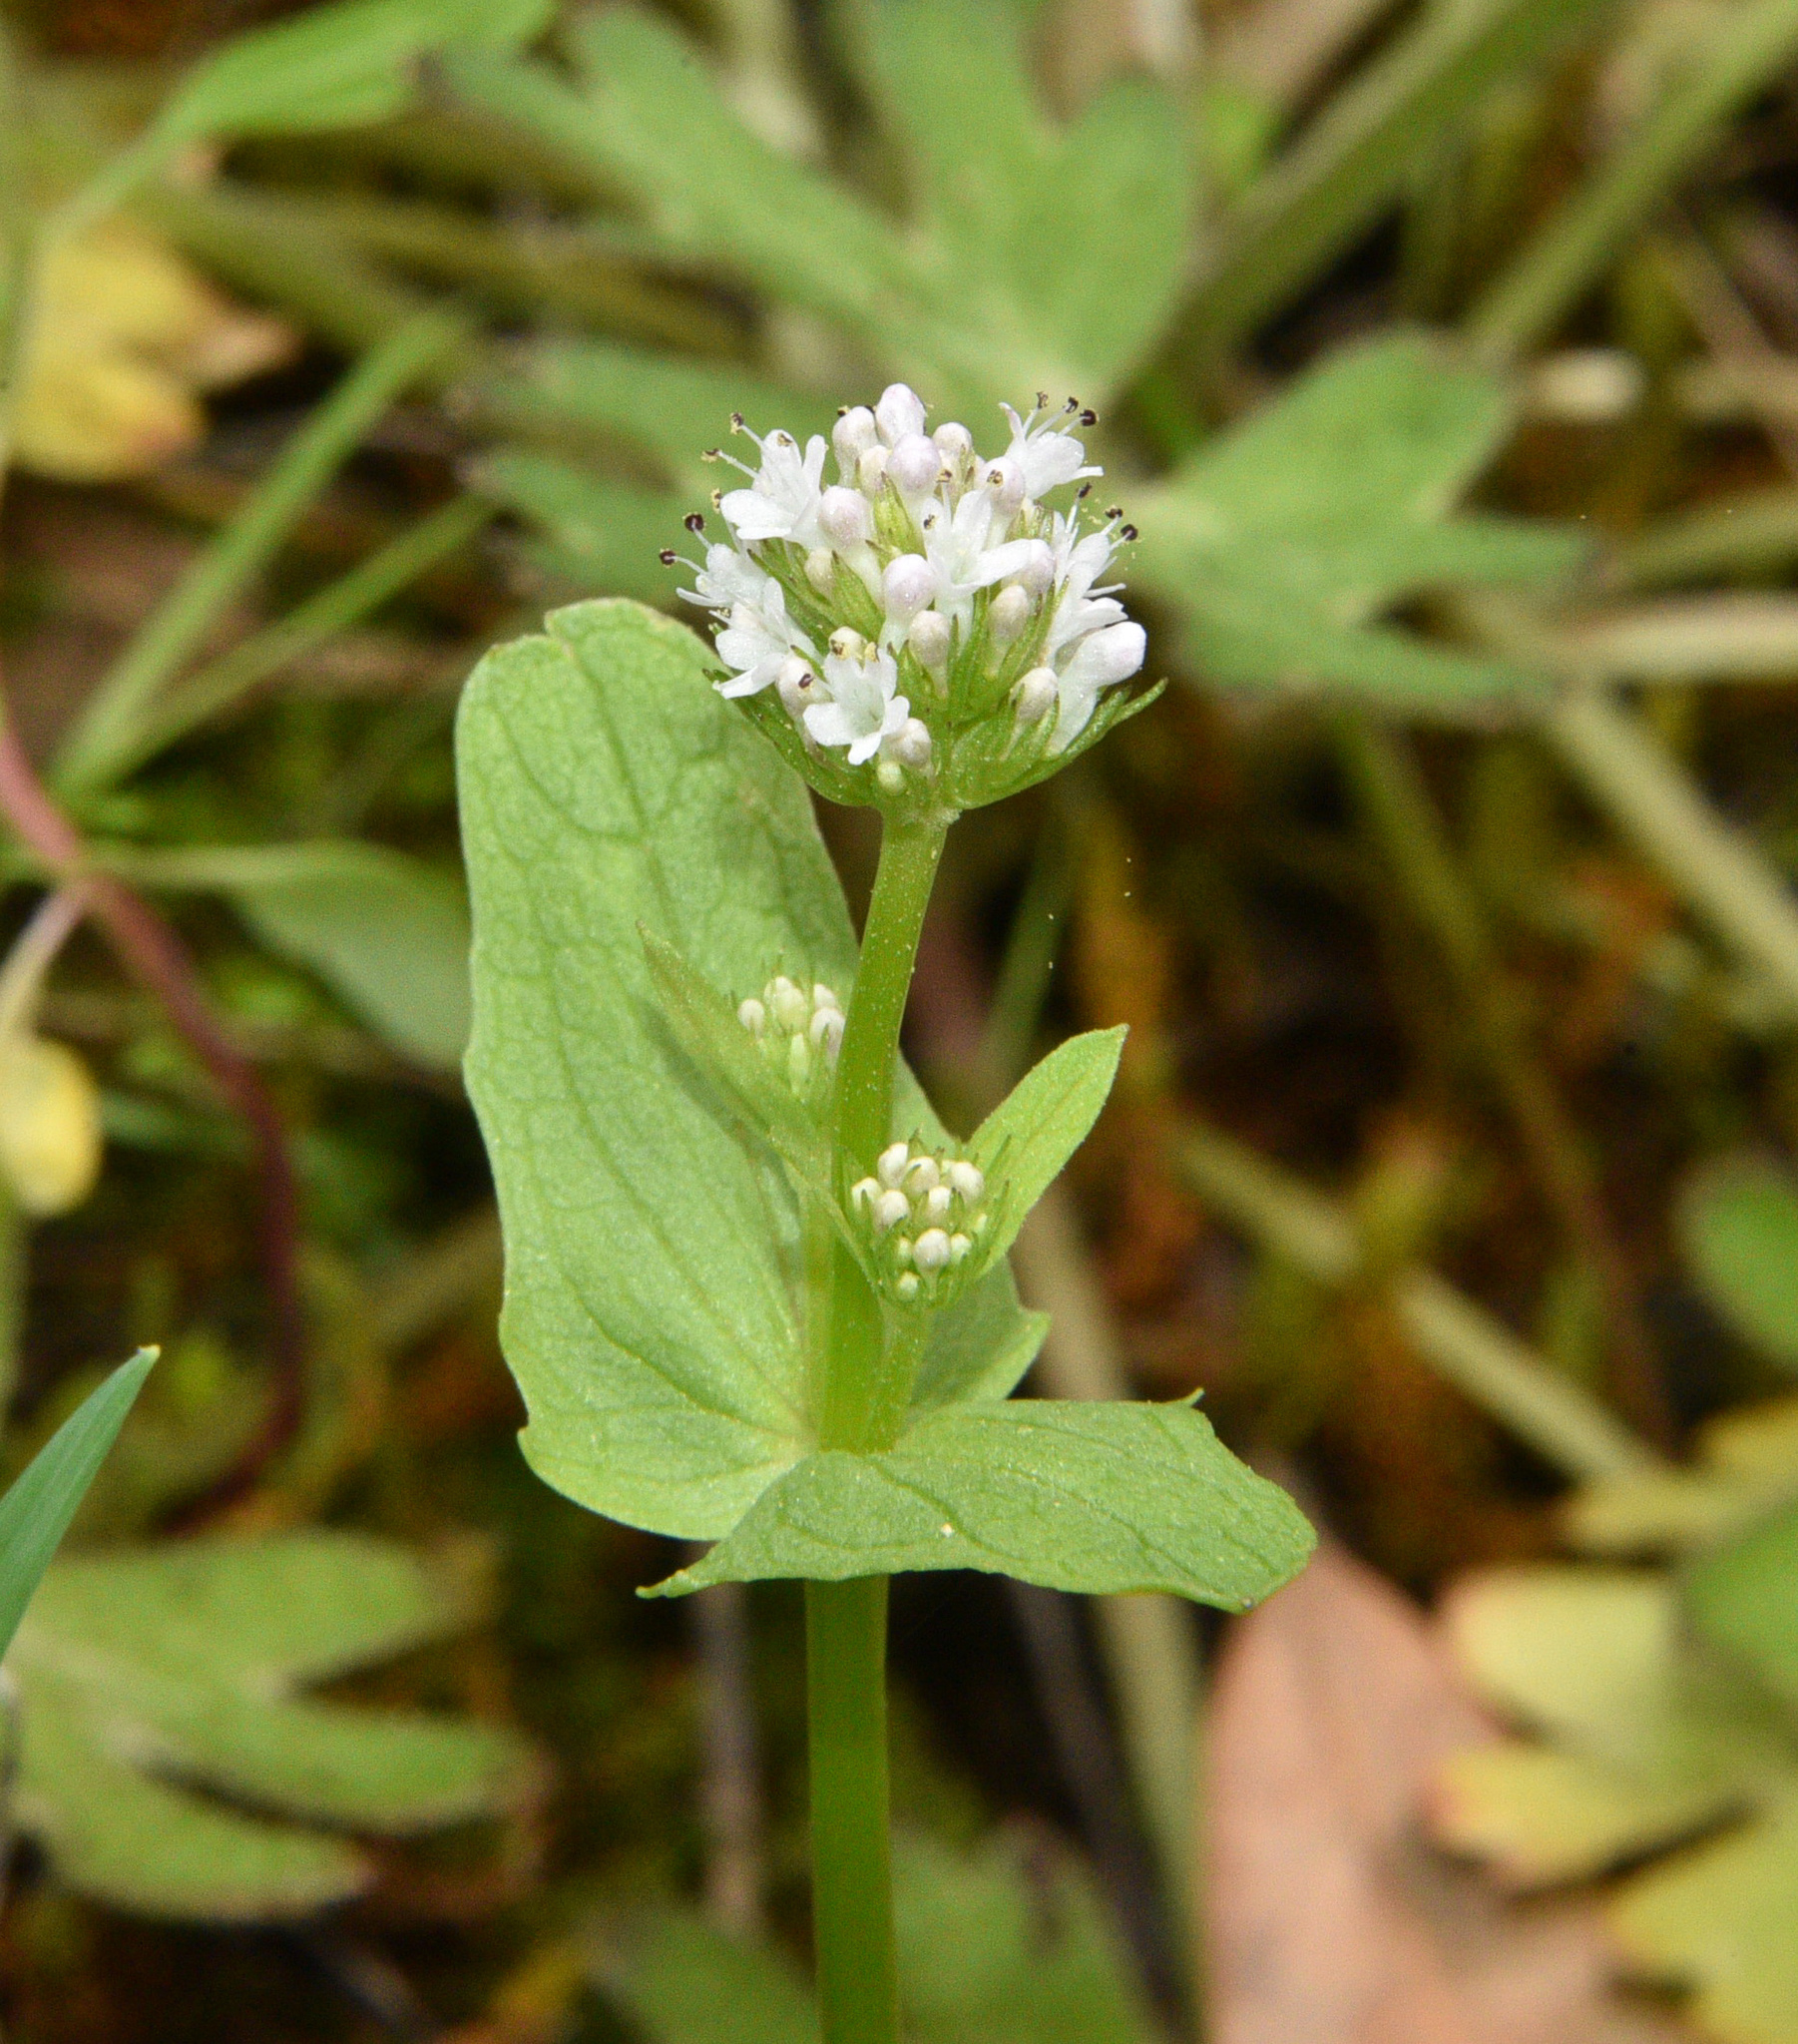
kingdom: Plantae
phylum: Tracheophyta
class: Magnoliopsida
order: Dipsacales
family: Caprifoliaceae
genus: Plectritis
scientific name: Plectritis macroptera
